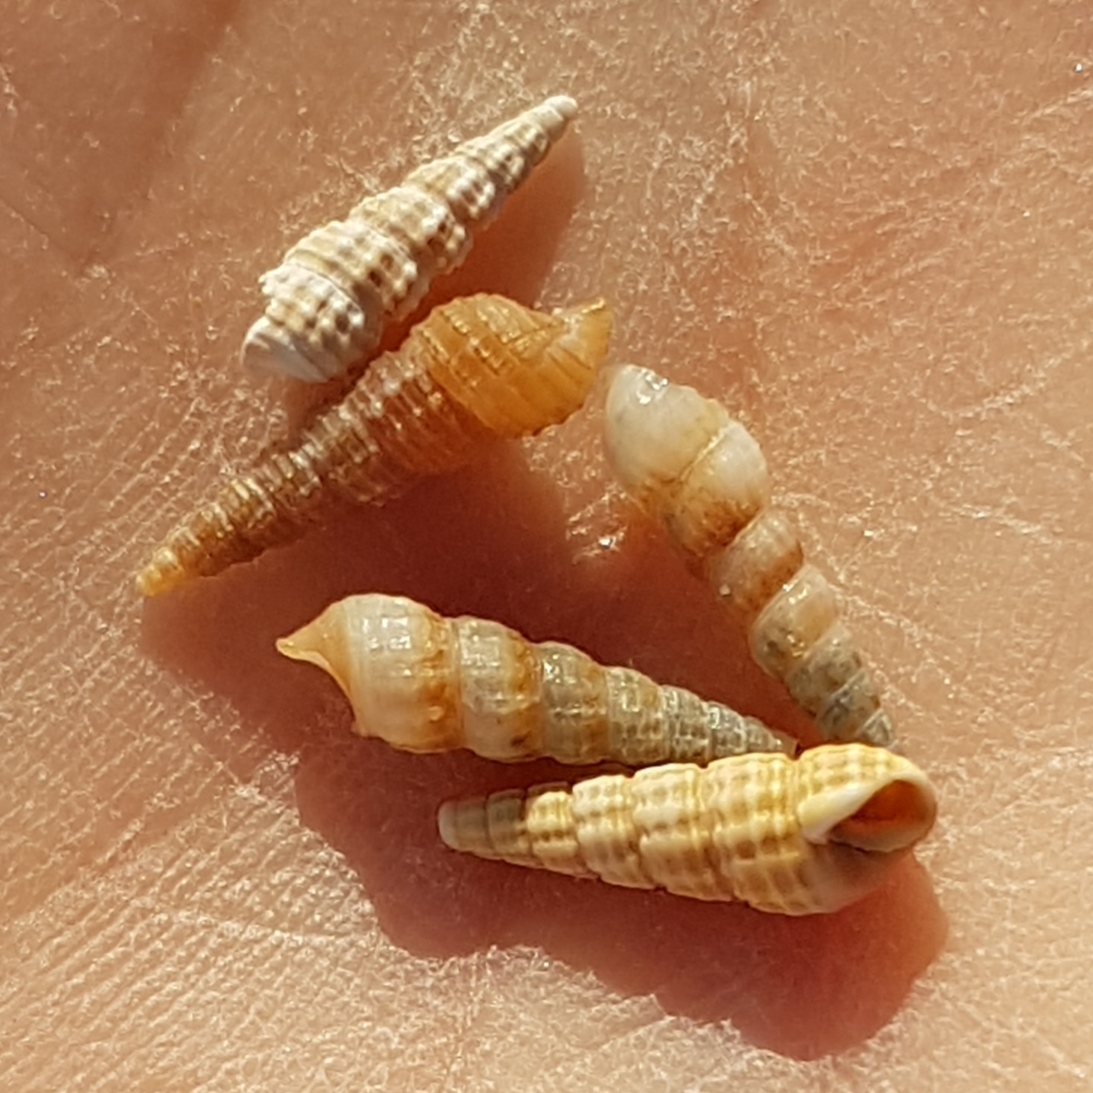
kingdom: Animalia
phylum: Mollusca
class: Gastropoda
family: Cerithiidae
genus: Bittium
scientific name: Bittium reticulatum
